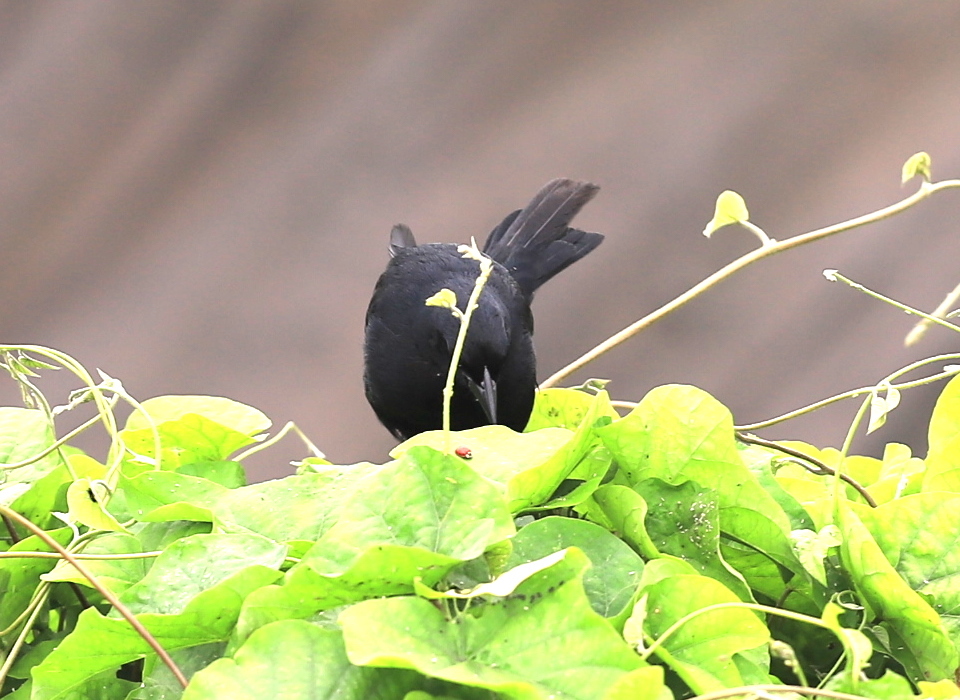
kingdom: Animalia
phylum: Chordata
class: Aves
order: Passeriformes
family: Icteridae
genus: Dives
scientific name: Dives warczewiczi
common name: Scrub blackbird
